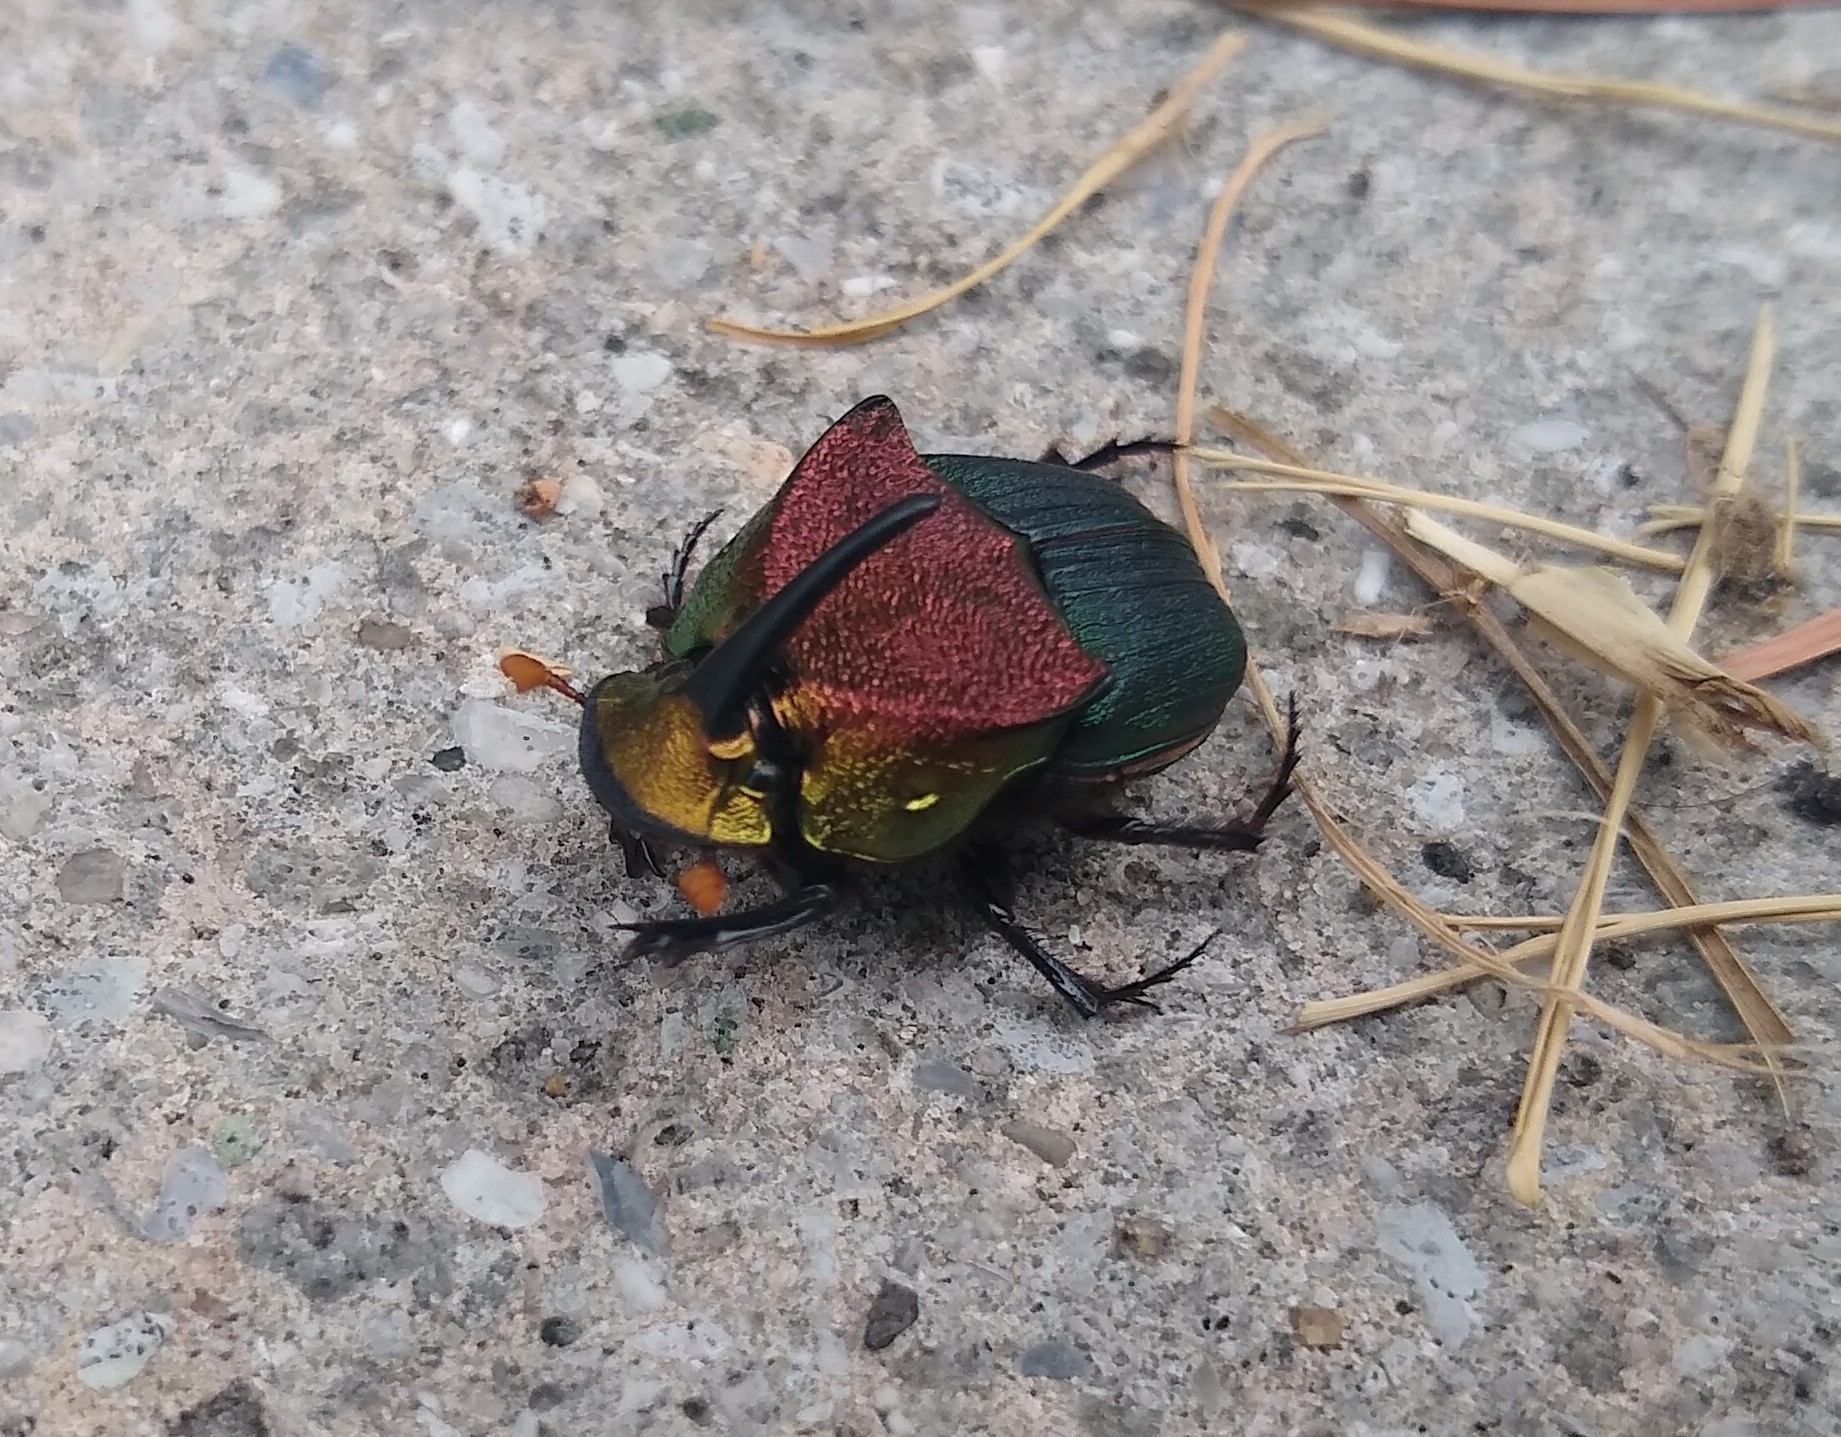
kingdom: Animalia
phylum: Arthropoda
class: Insecta
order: Coleoptera
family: Scarabaeidae
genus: Phanaeus
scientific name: Phanaeus vindex
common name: Rainbow scarab
